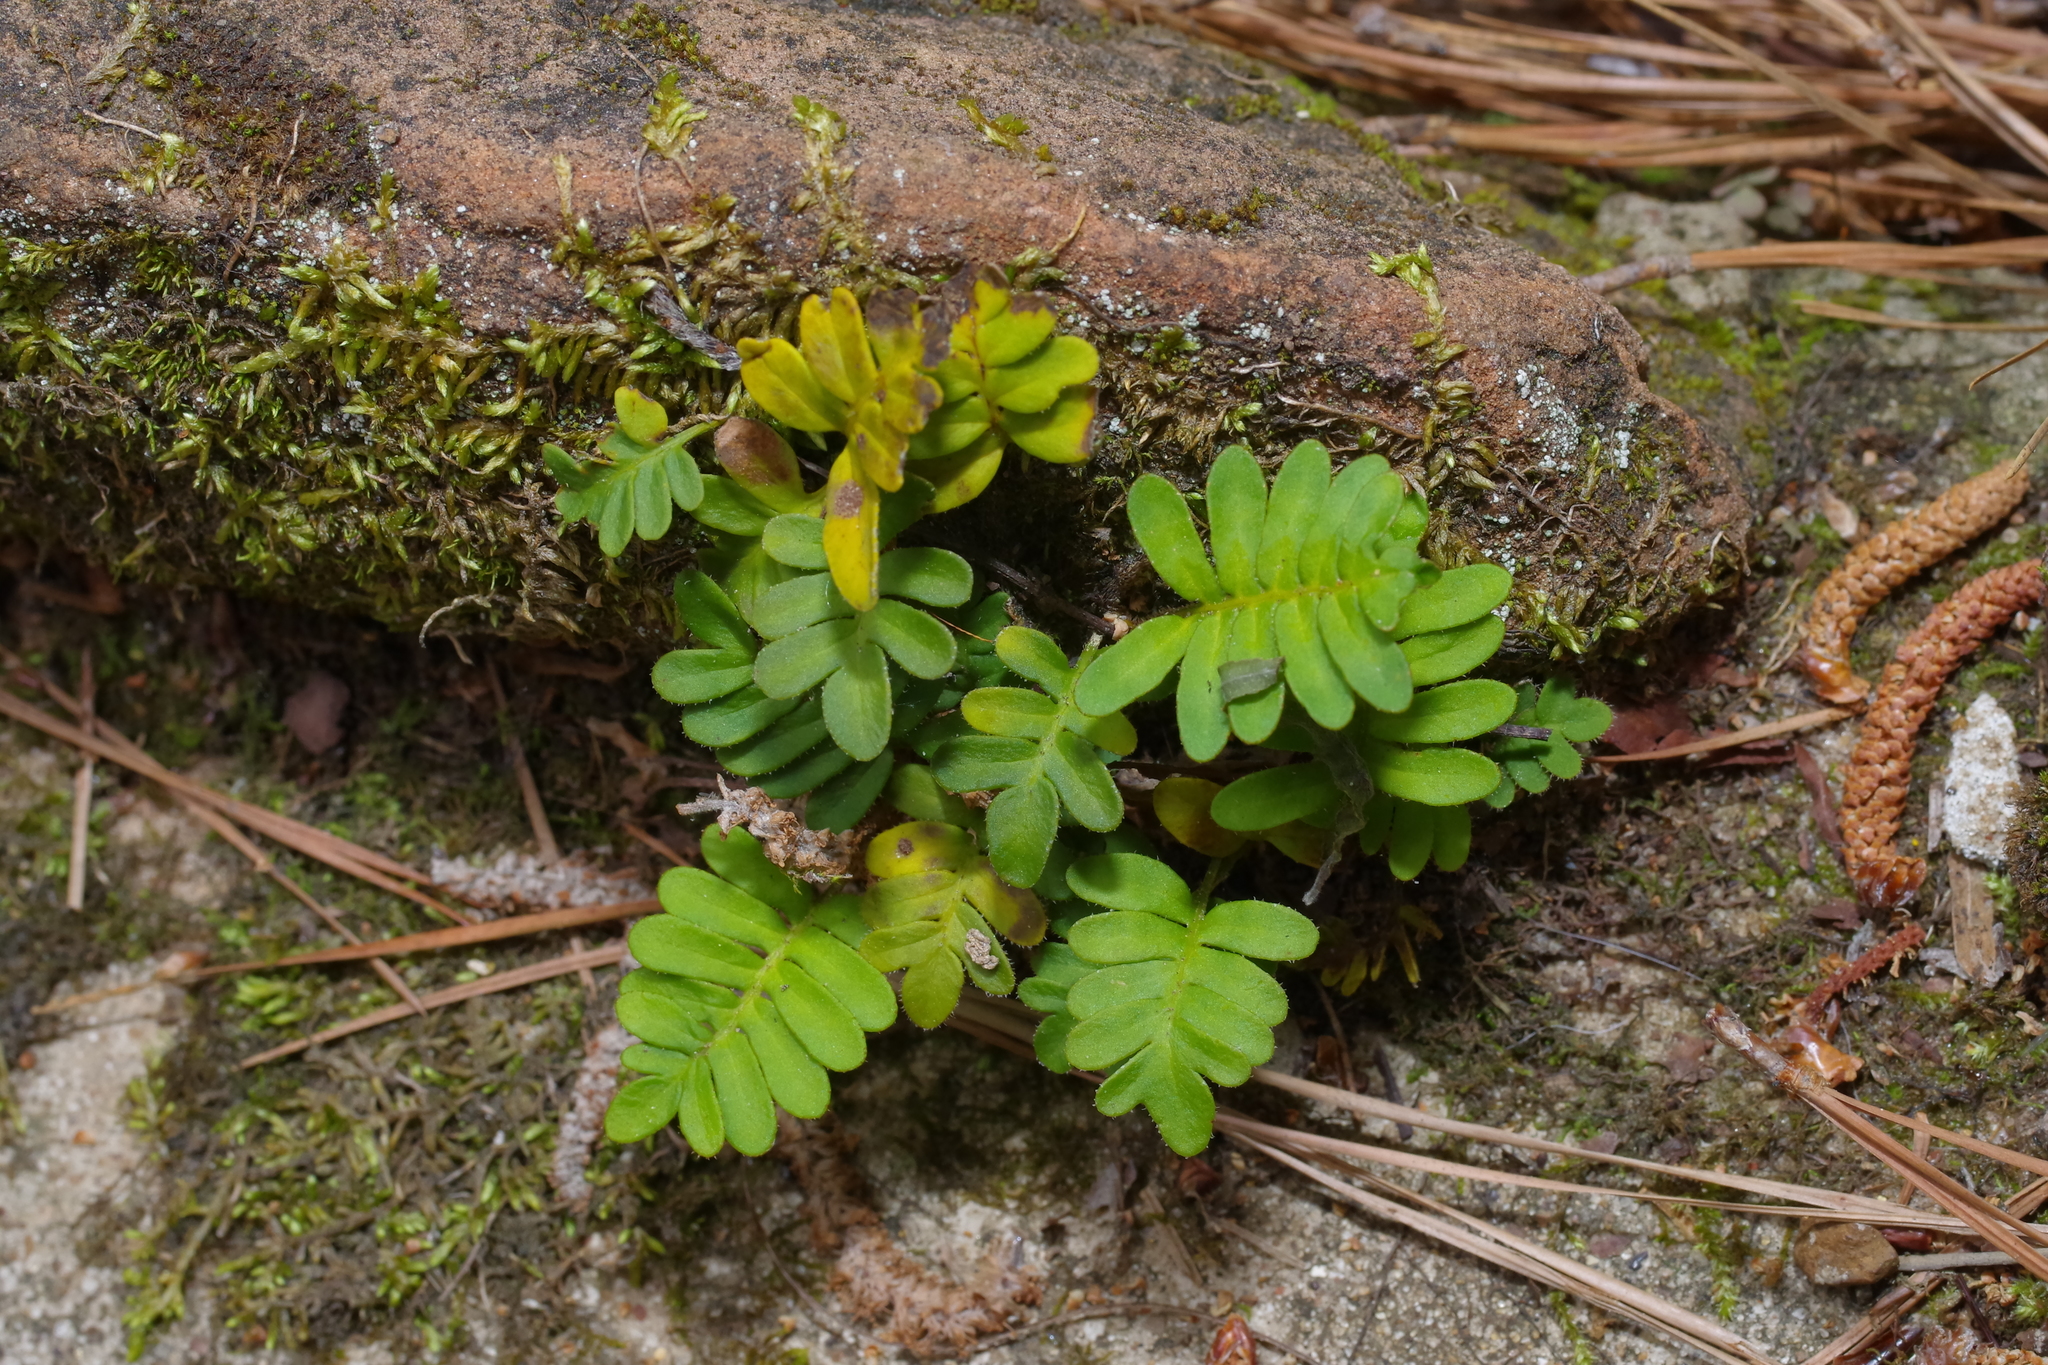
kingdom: Plantae
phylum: Tracheophyta
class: Polypodiopsida
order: Polypodiales
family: Polypodiaceae
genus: Pleopeltis
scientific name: Pleopeltis michauxiana
